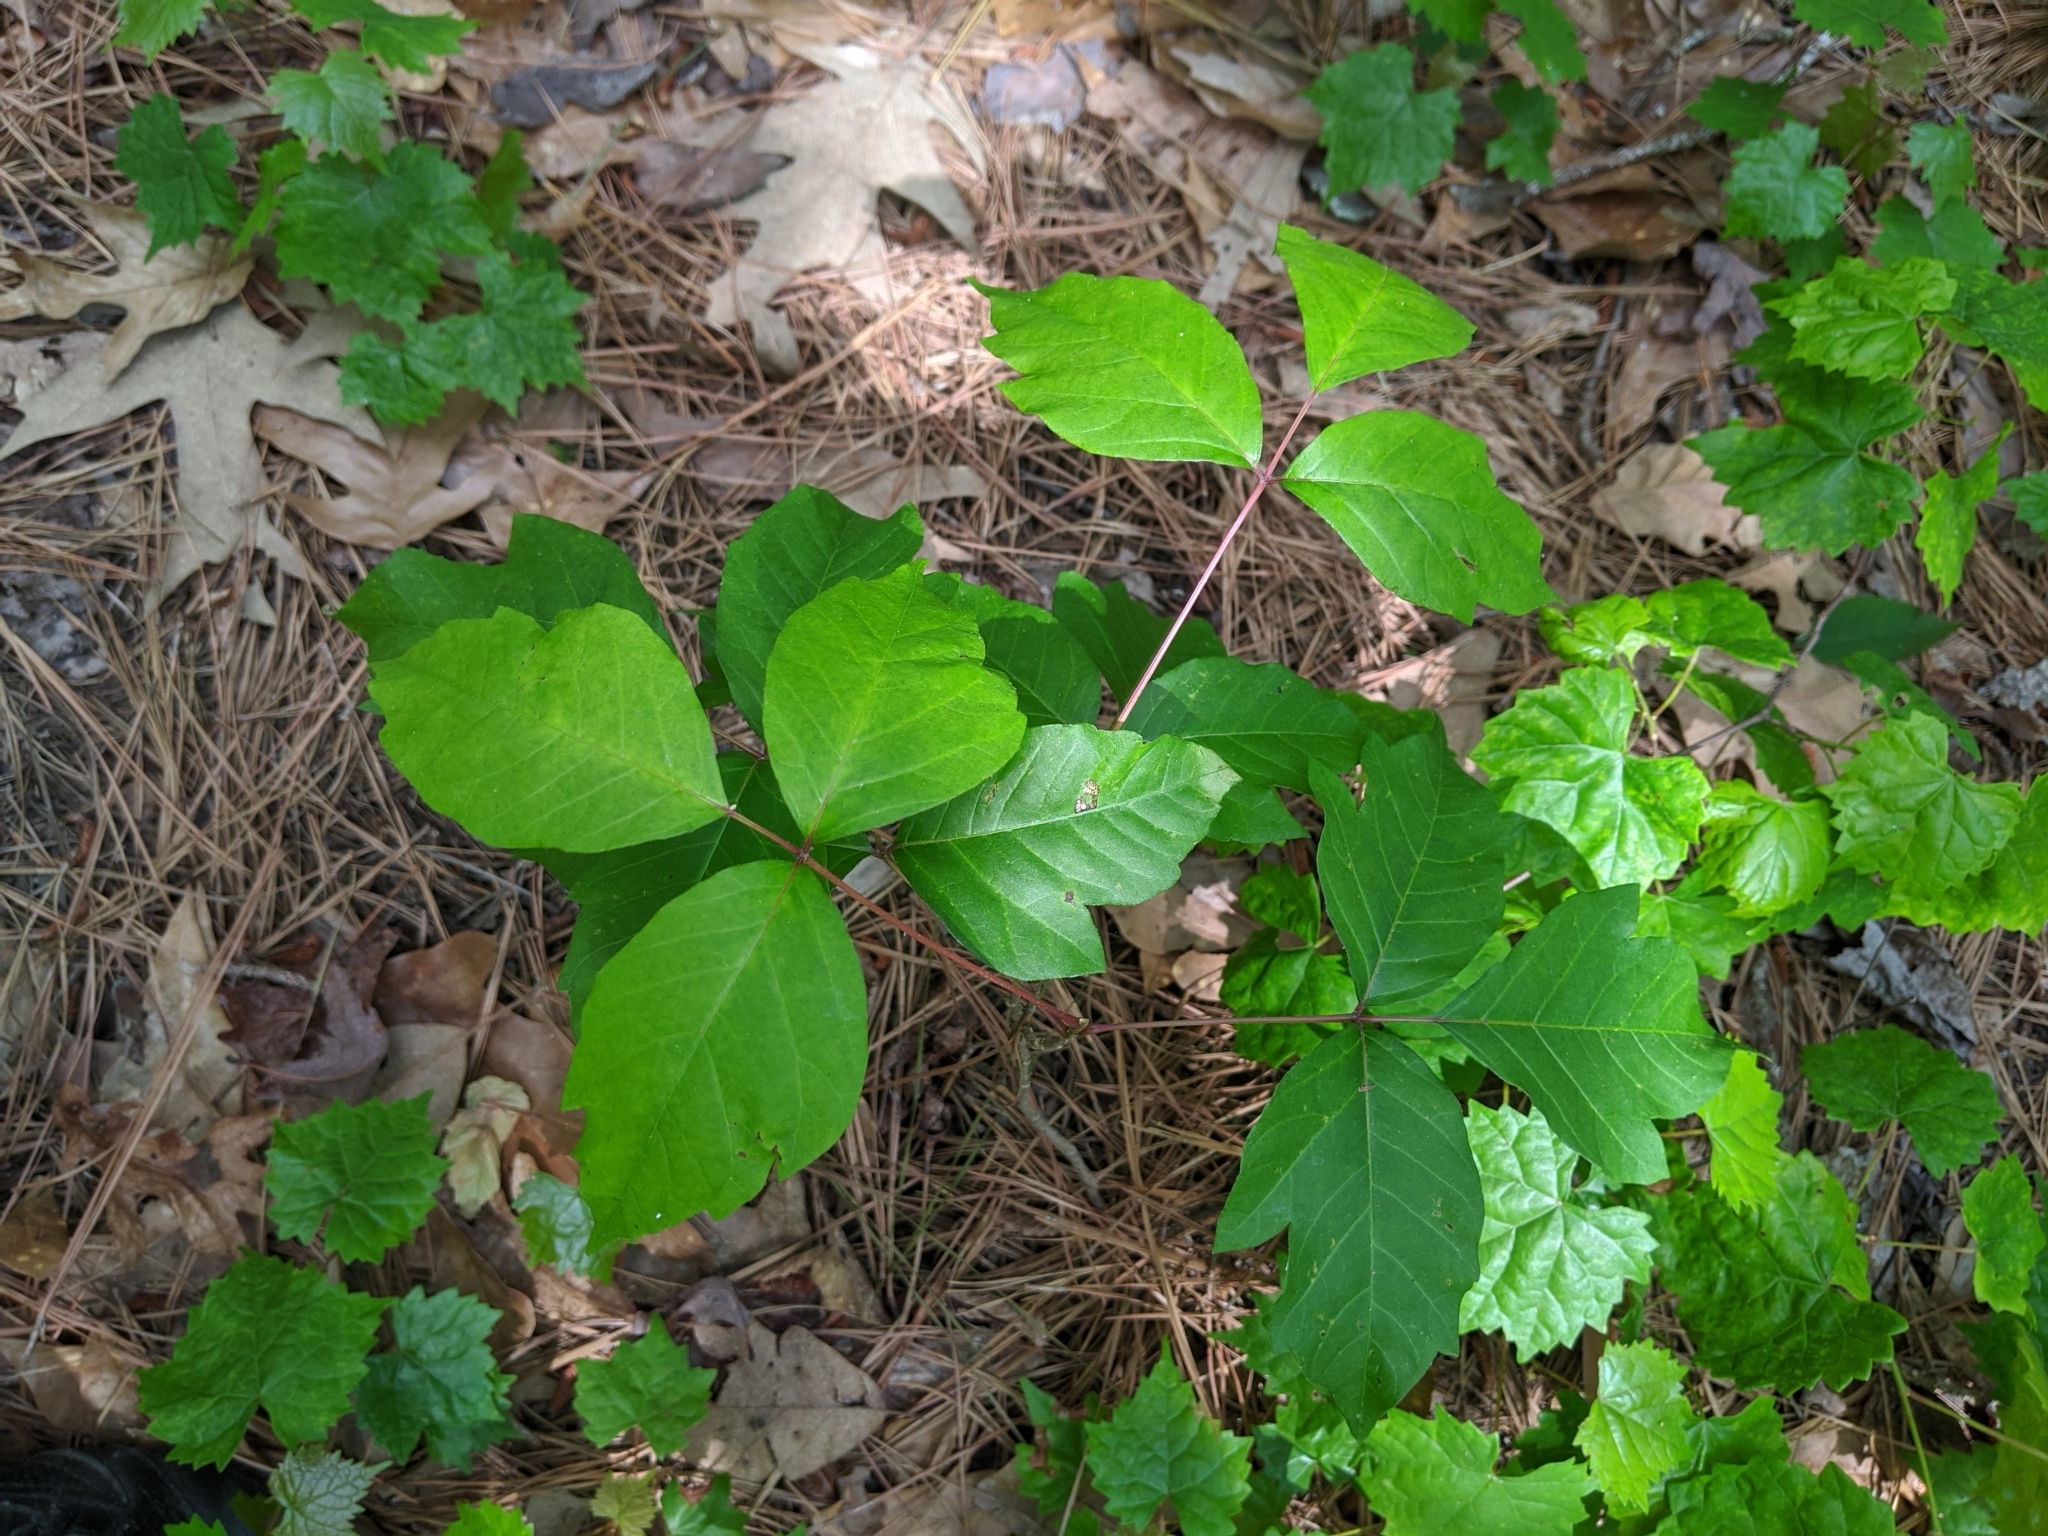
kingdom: Plantae
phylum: Tracheophyta
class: Magnoliopsida
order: Sapindales
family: Anacardiaceae
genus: Toxicodendron
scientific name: Toxicodendron radicans
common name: Poison ivy
